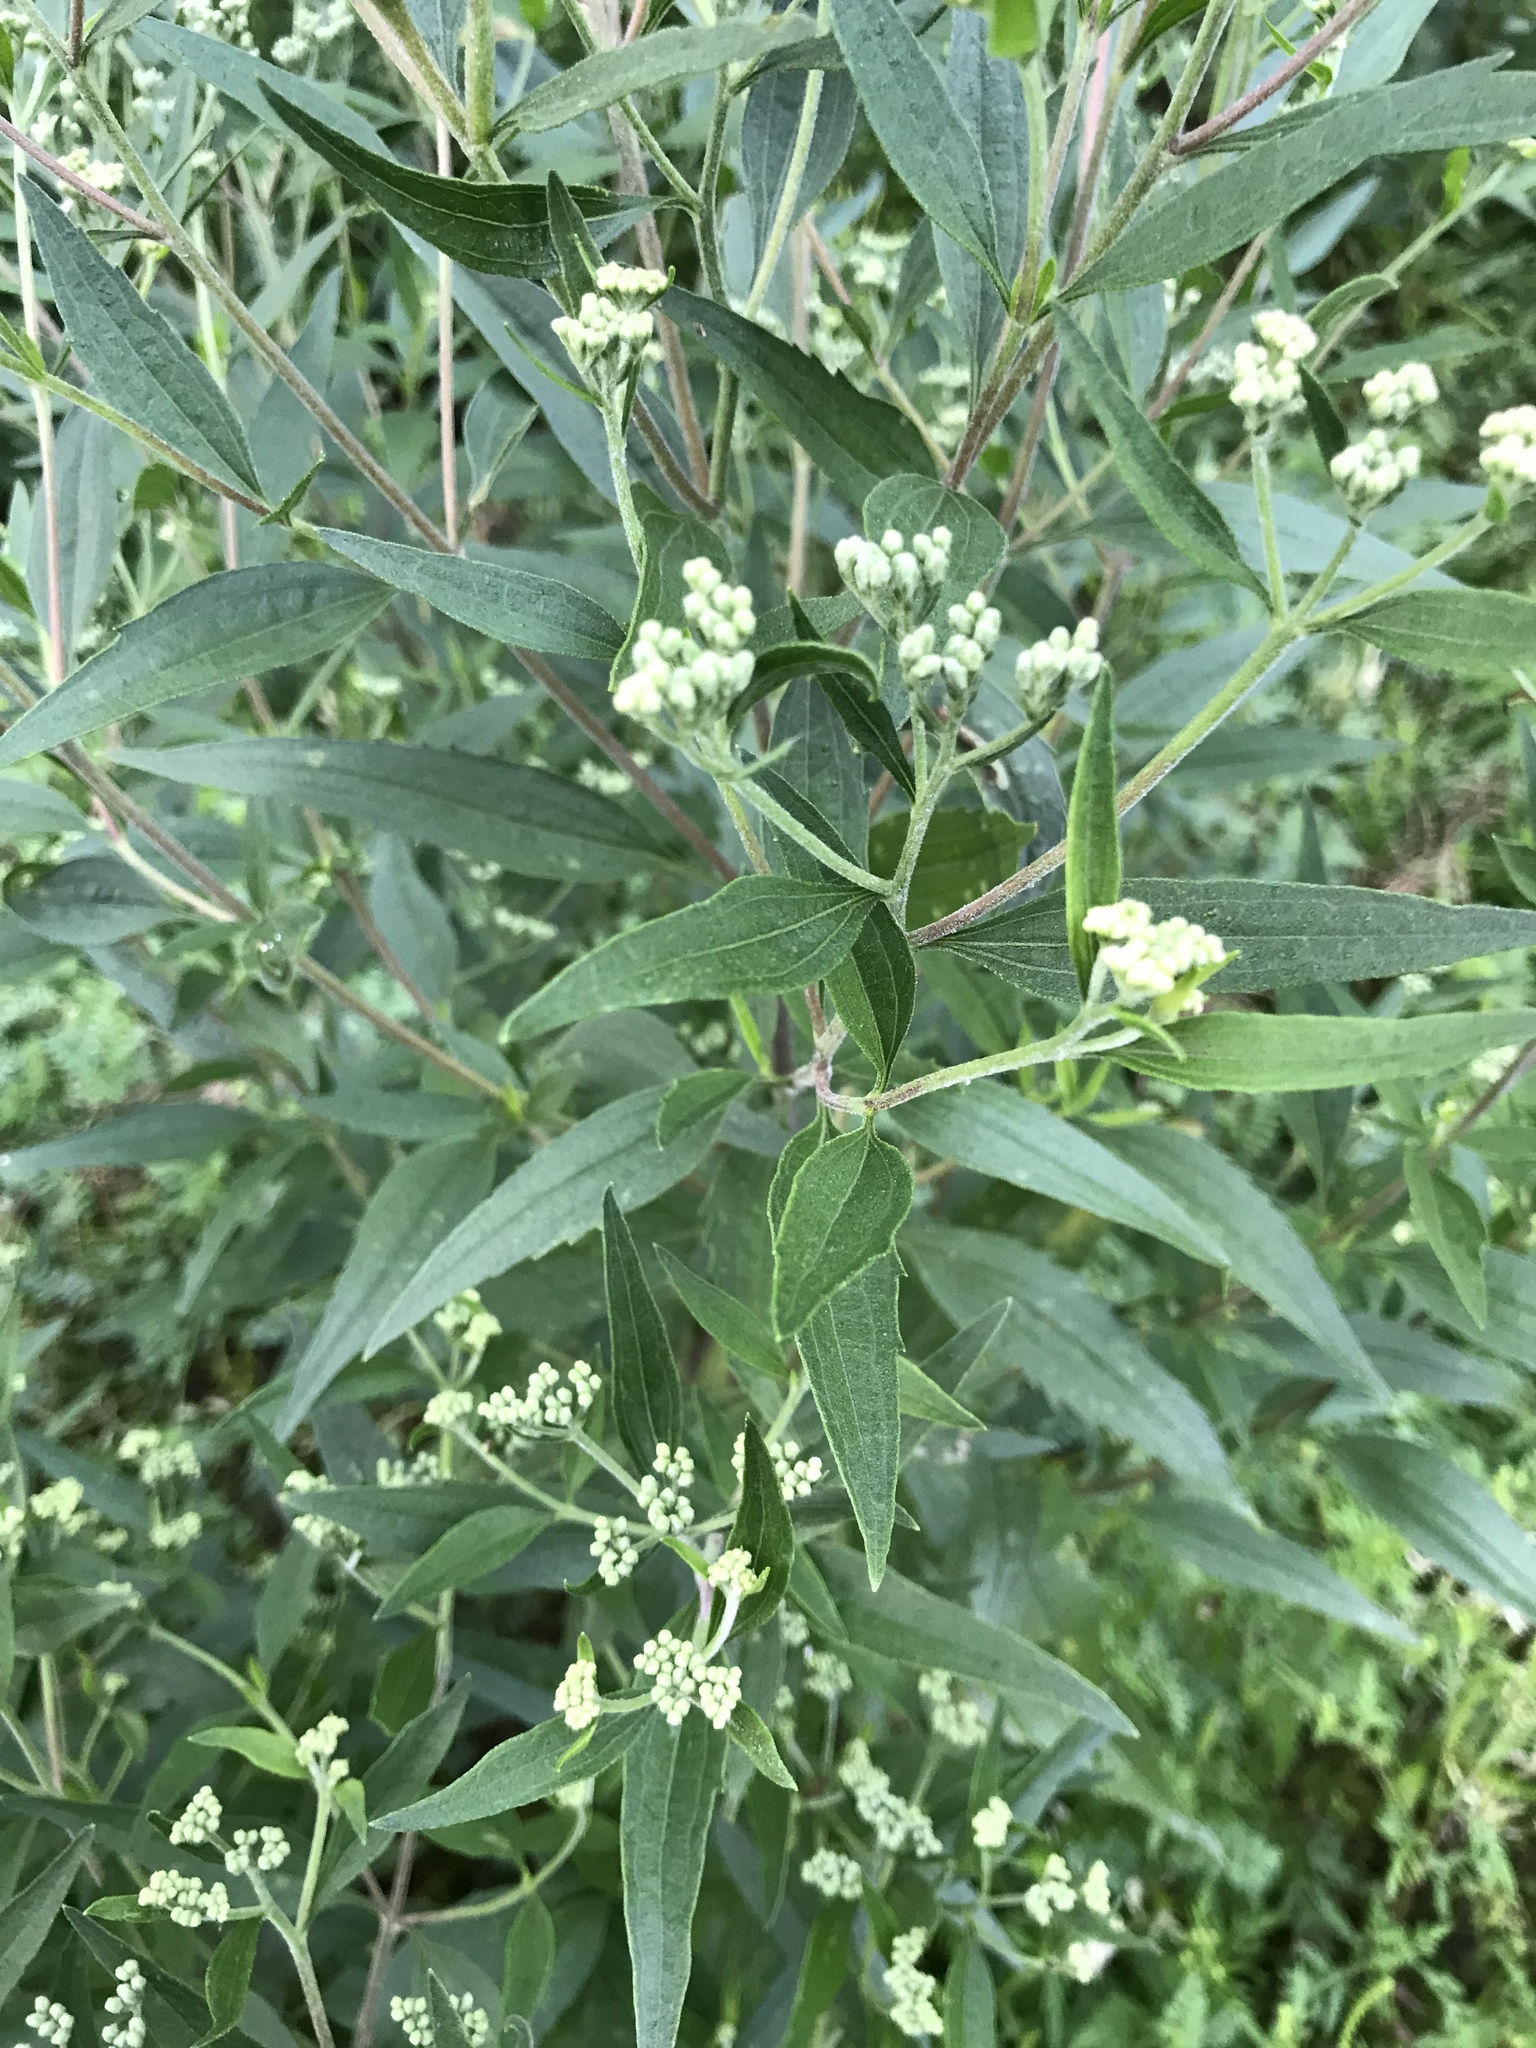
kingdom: Plantae
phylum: Tracheophyta
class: Magnoliopsida
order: Asterales
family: Asteraceae
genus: Eupatorium
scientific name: Eupatorium serotinum
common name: Late boneset
